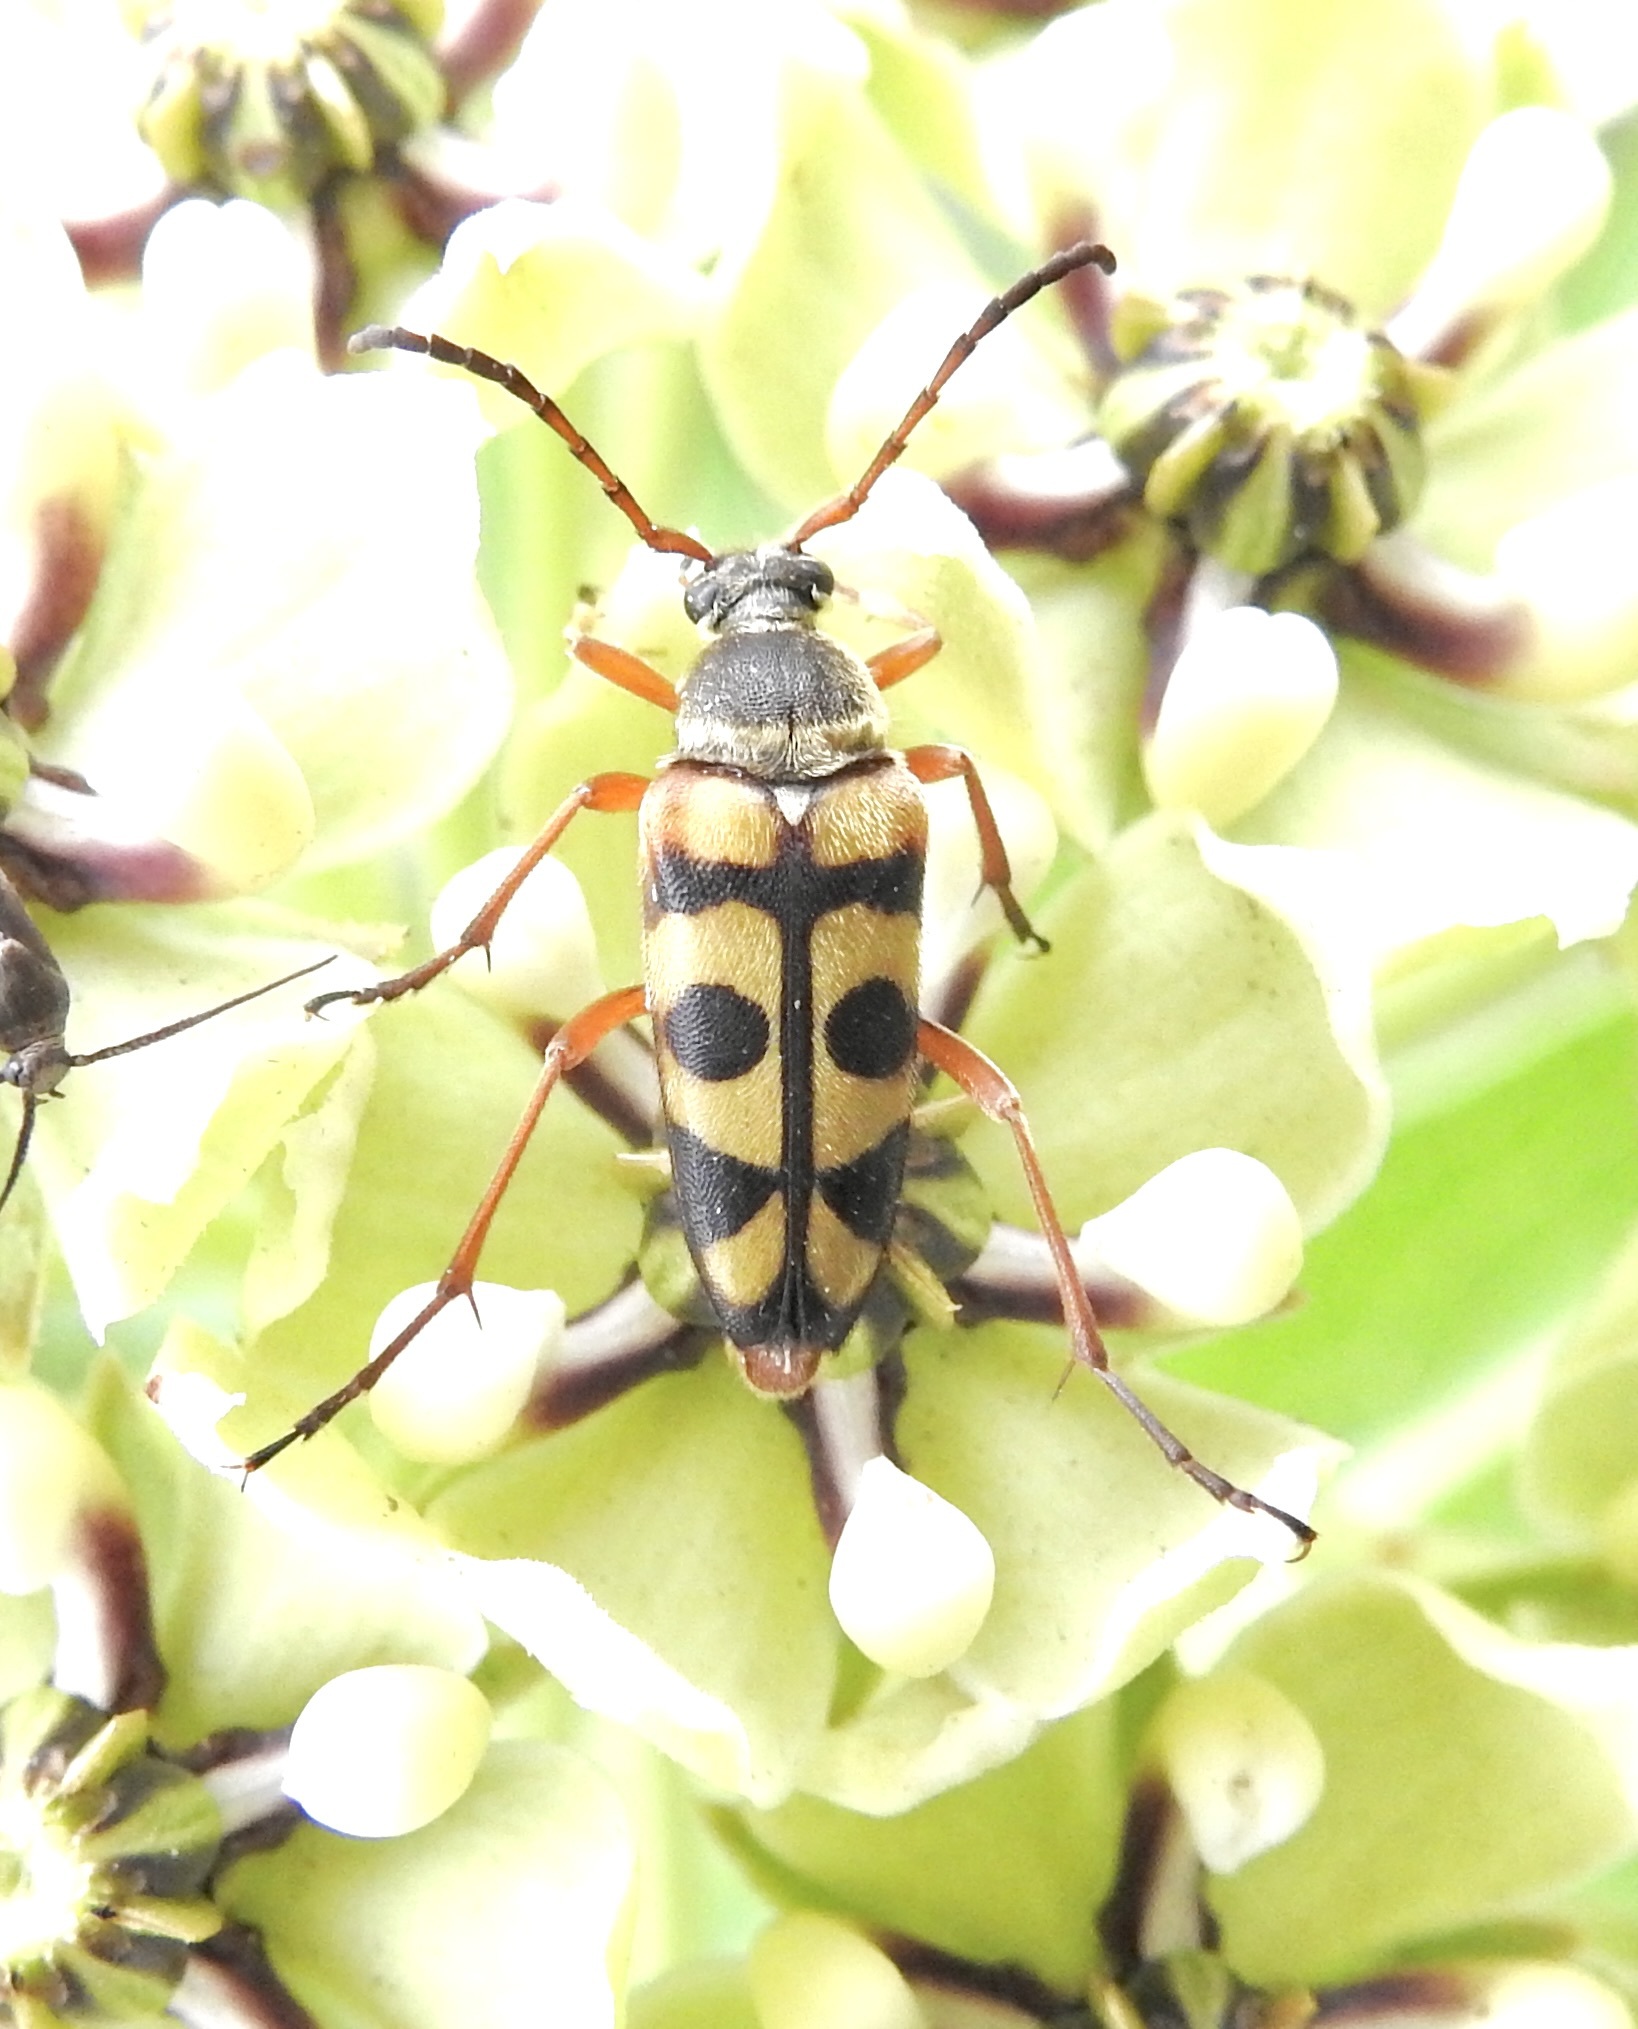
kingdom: Animalia
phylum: Arthropoda
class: Insecta
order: Coleoptera
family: Cerambycidae
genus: Typocerus
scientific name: Typocerus sinuatus
